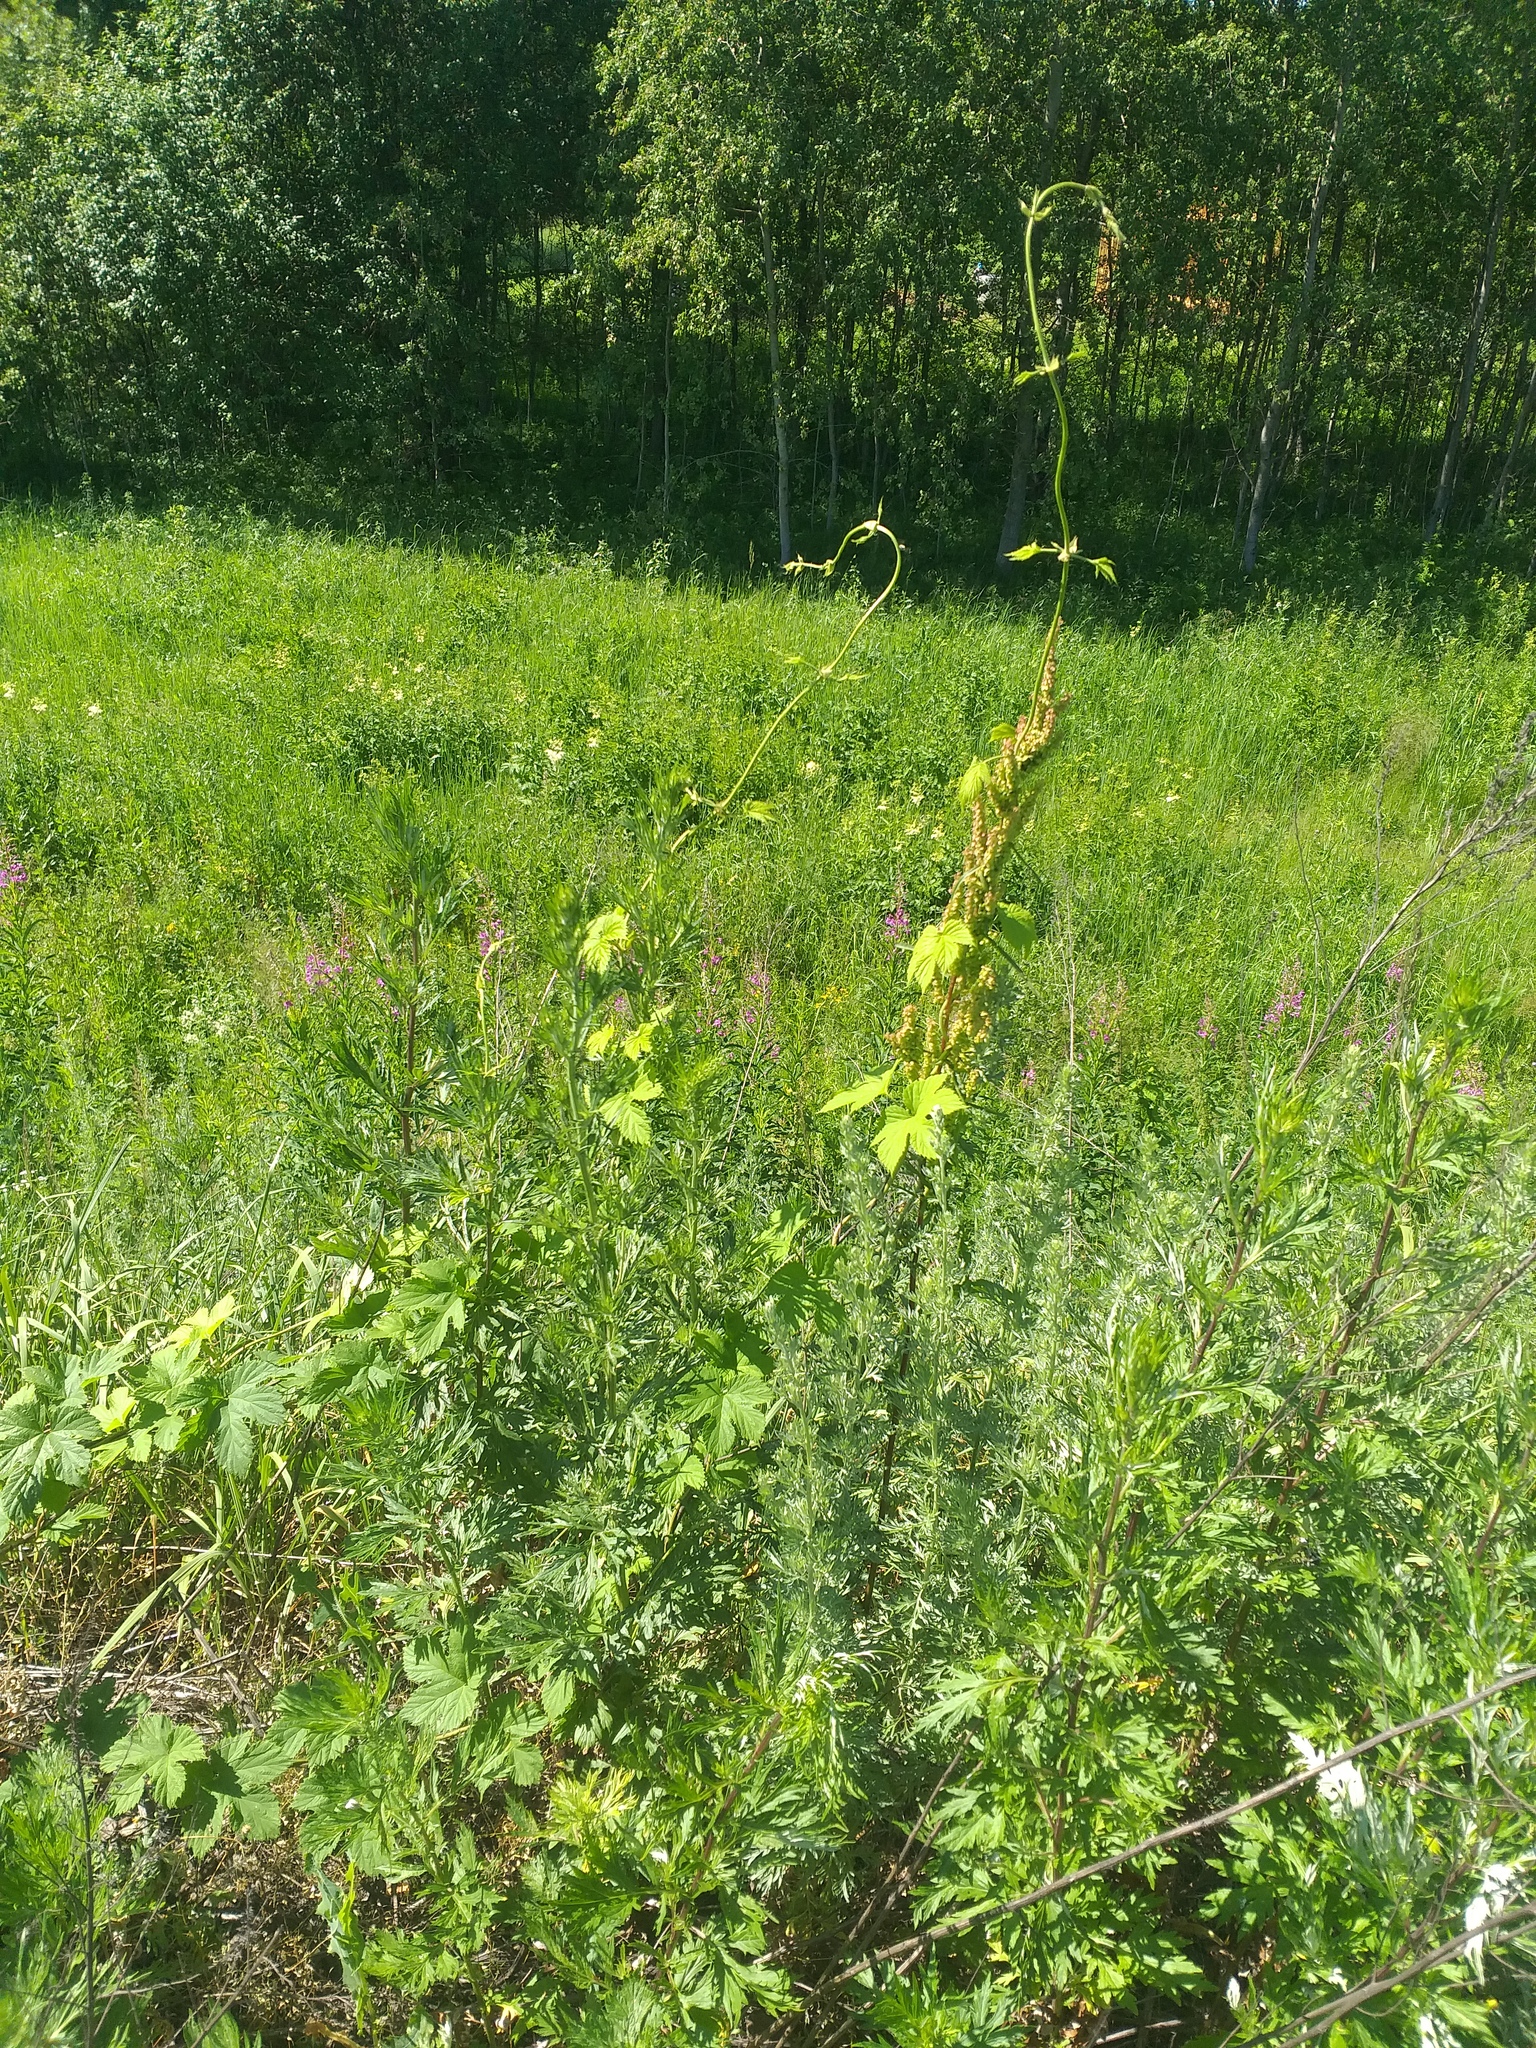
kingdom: Plantae
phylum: Tracheophyta
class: Magnoliopsida
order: Rosales
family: Cannabaceae
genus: Humulus
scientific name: Humulus lupulus
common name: Hop
